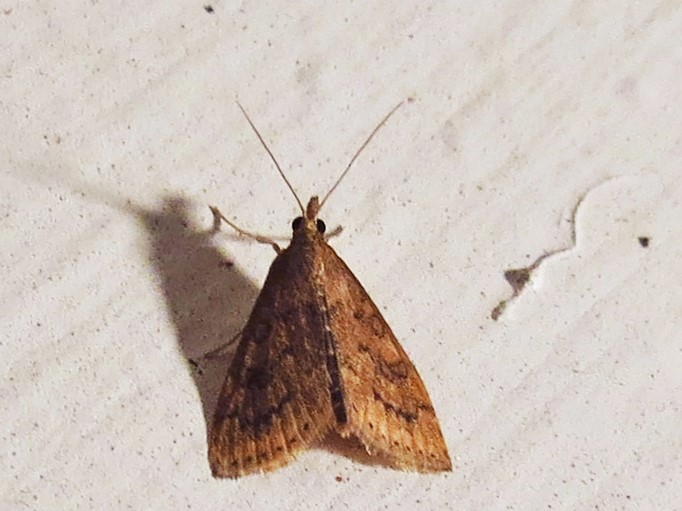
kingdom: Animalia
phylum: Arthropoda
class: Insecta
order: Lepidoptera
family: Crambidae
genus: Udea
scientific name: Udea rubigalis
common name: Celery leaftier moth
